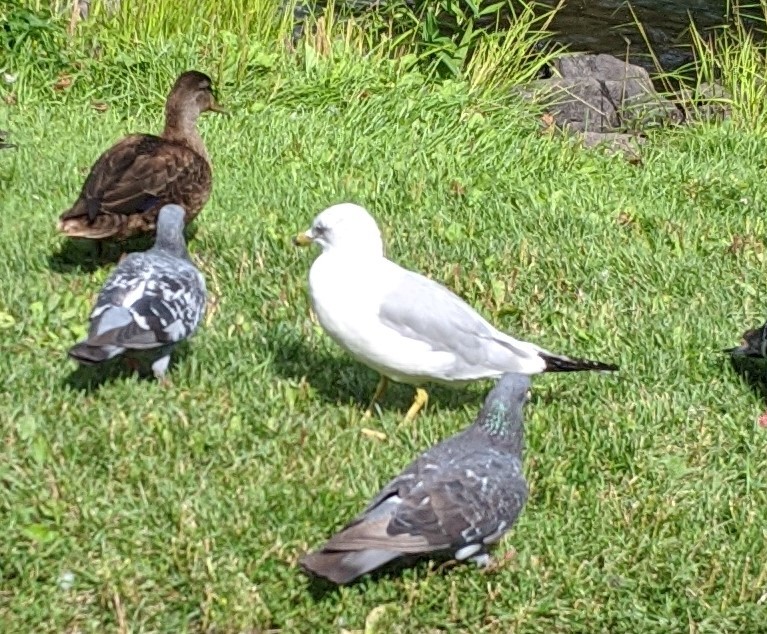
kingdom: Animalia
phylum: Chordata
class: Aves
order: Charadriiformes
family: Laridae
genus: Larus
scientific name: Larus delawarensis
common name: Ring-billed gull
